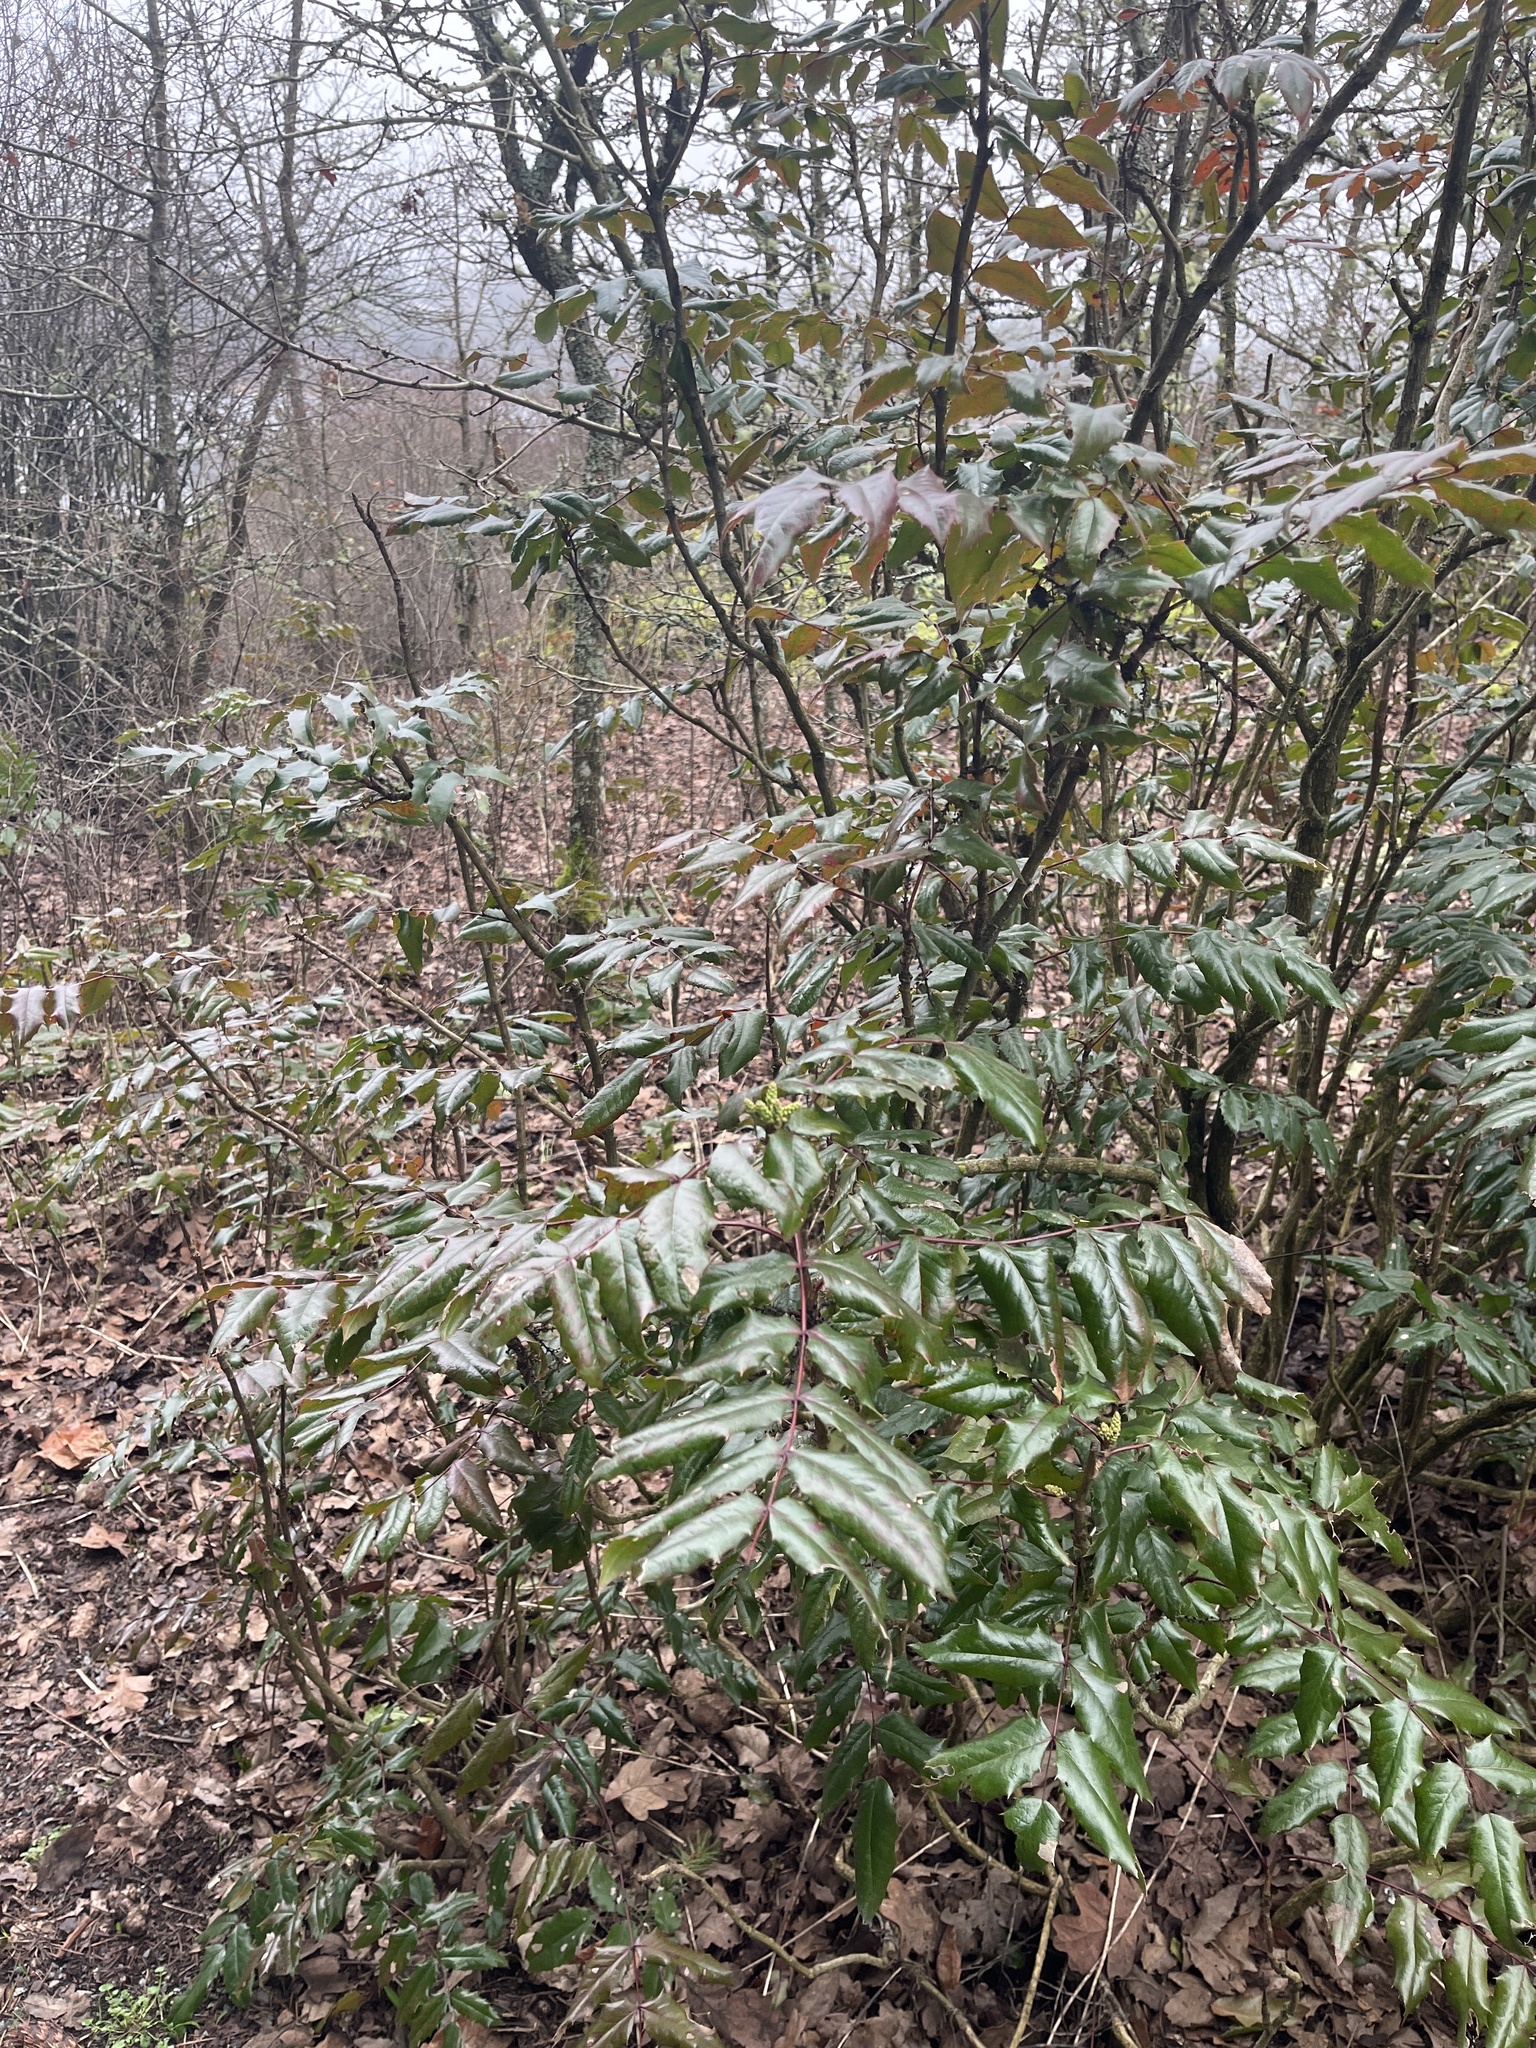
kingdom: Plantae
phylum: Tracheophyta
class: Magnoliopsida
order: Ranunculales
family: Berberidaceae
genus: Mahonia
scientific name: Mahonia aquifolium
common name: Oregon-grape
